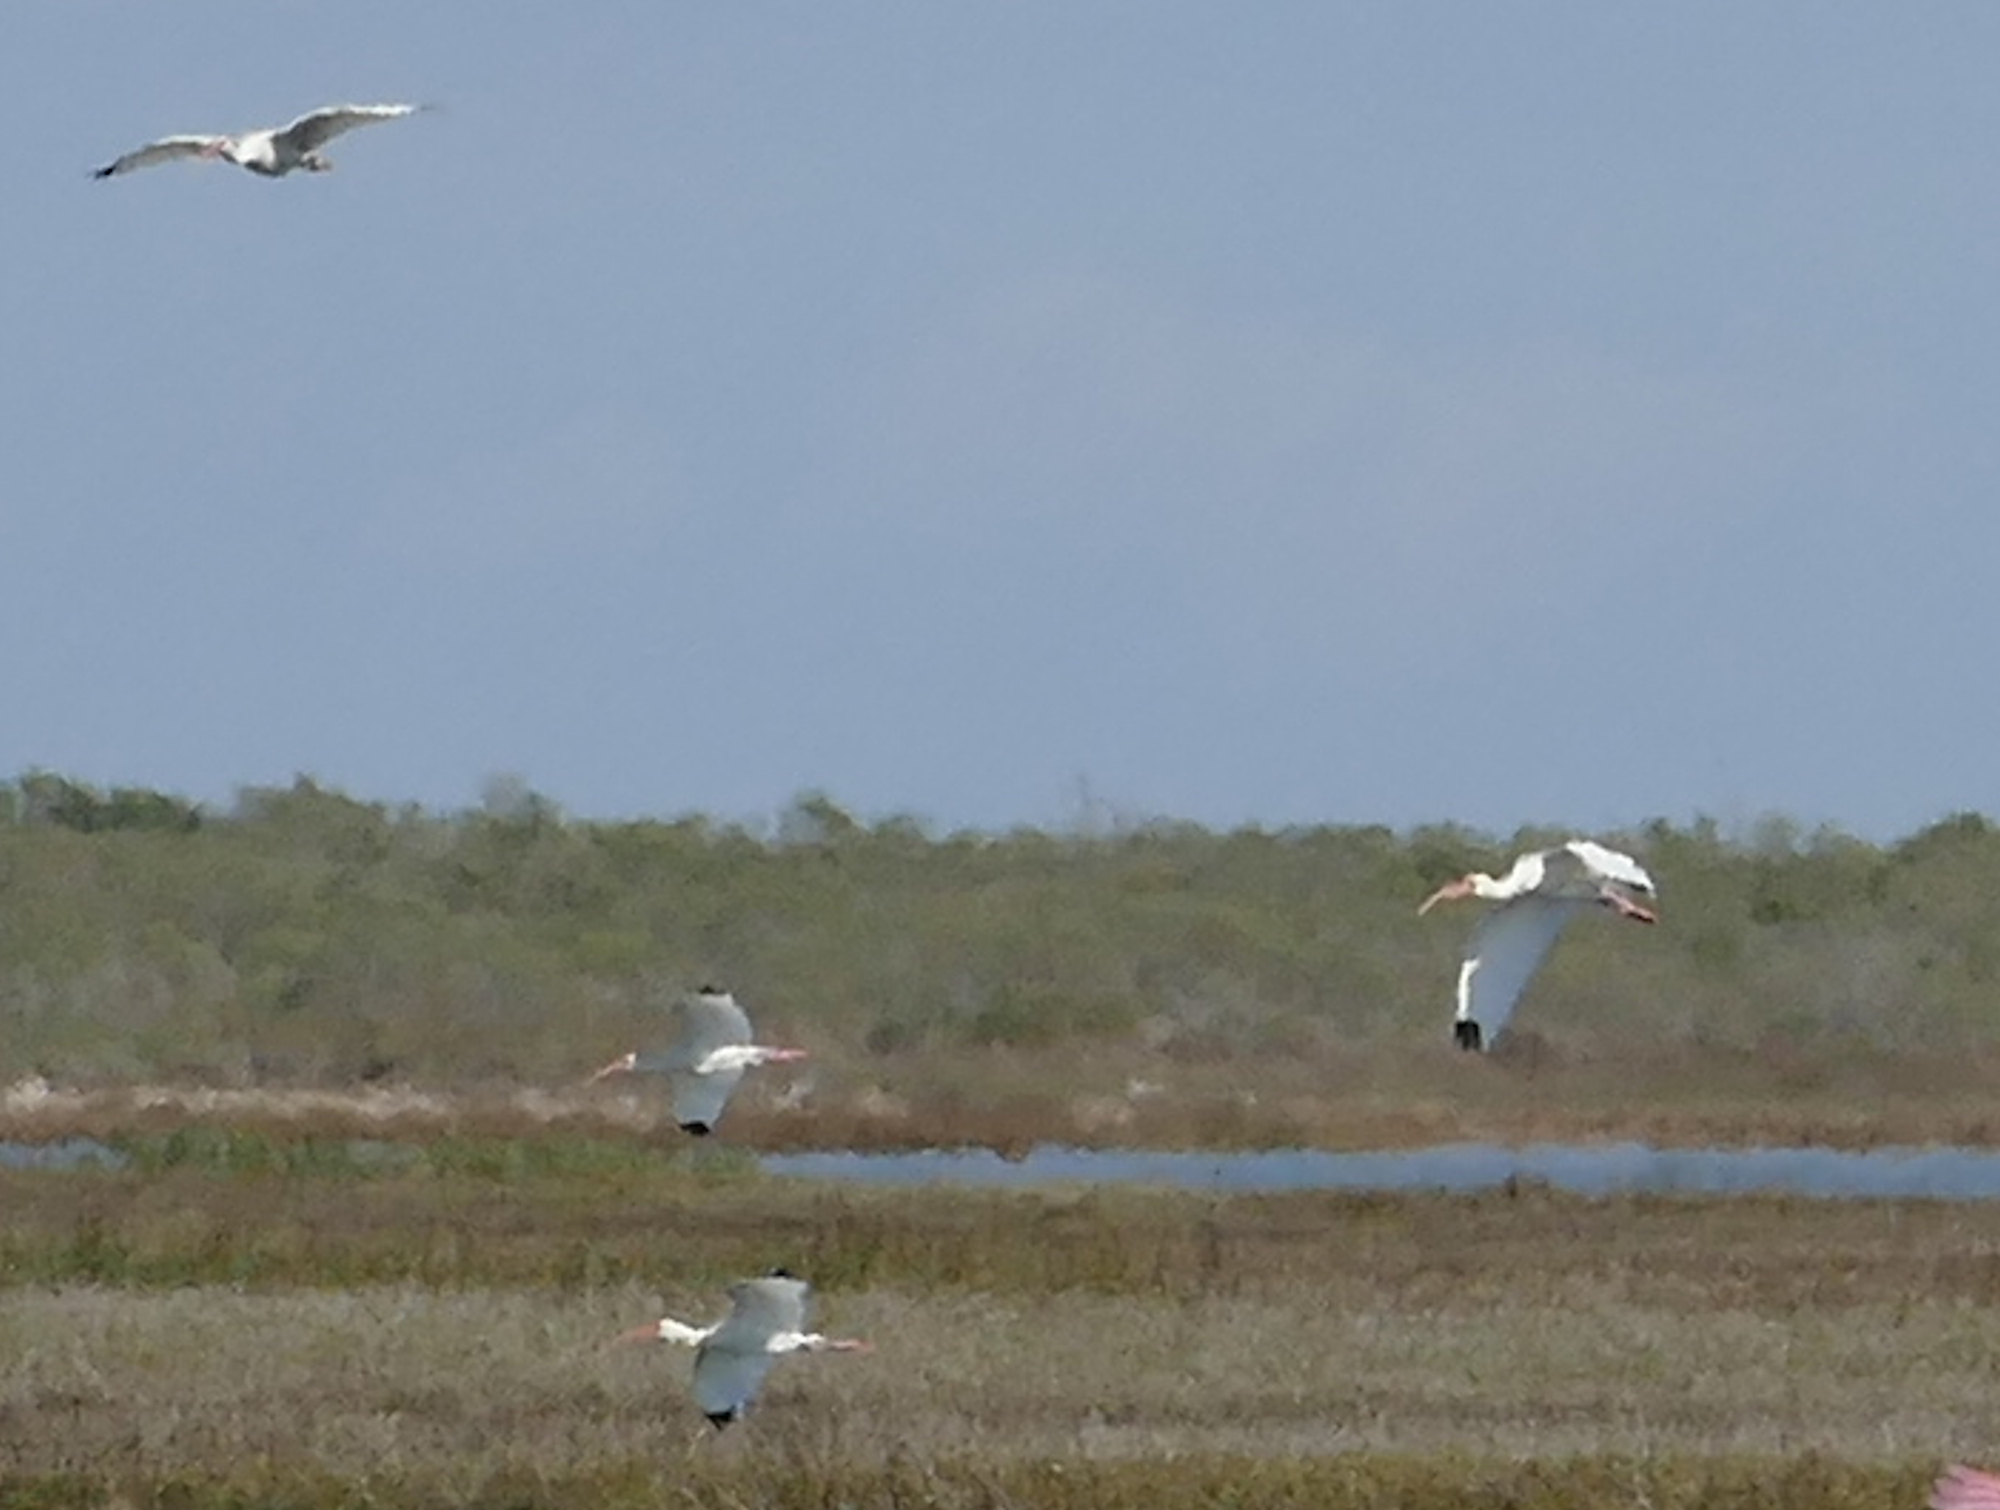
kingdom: Animalia
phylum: Chordata
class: Aves
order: Pelecaniformes
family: Threskiornithidae
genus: Eudocimus
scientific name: Eudocimus albus
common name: White ibis
